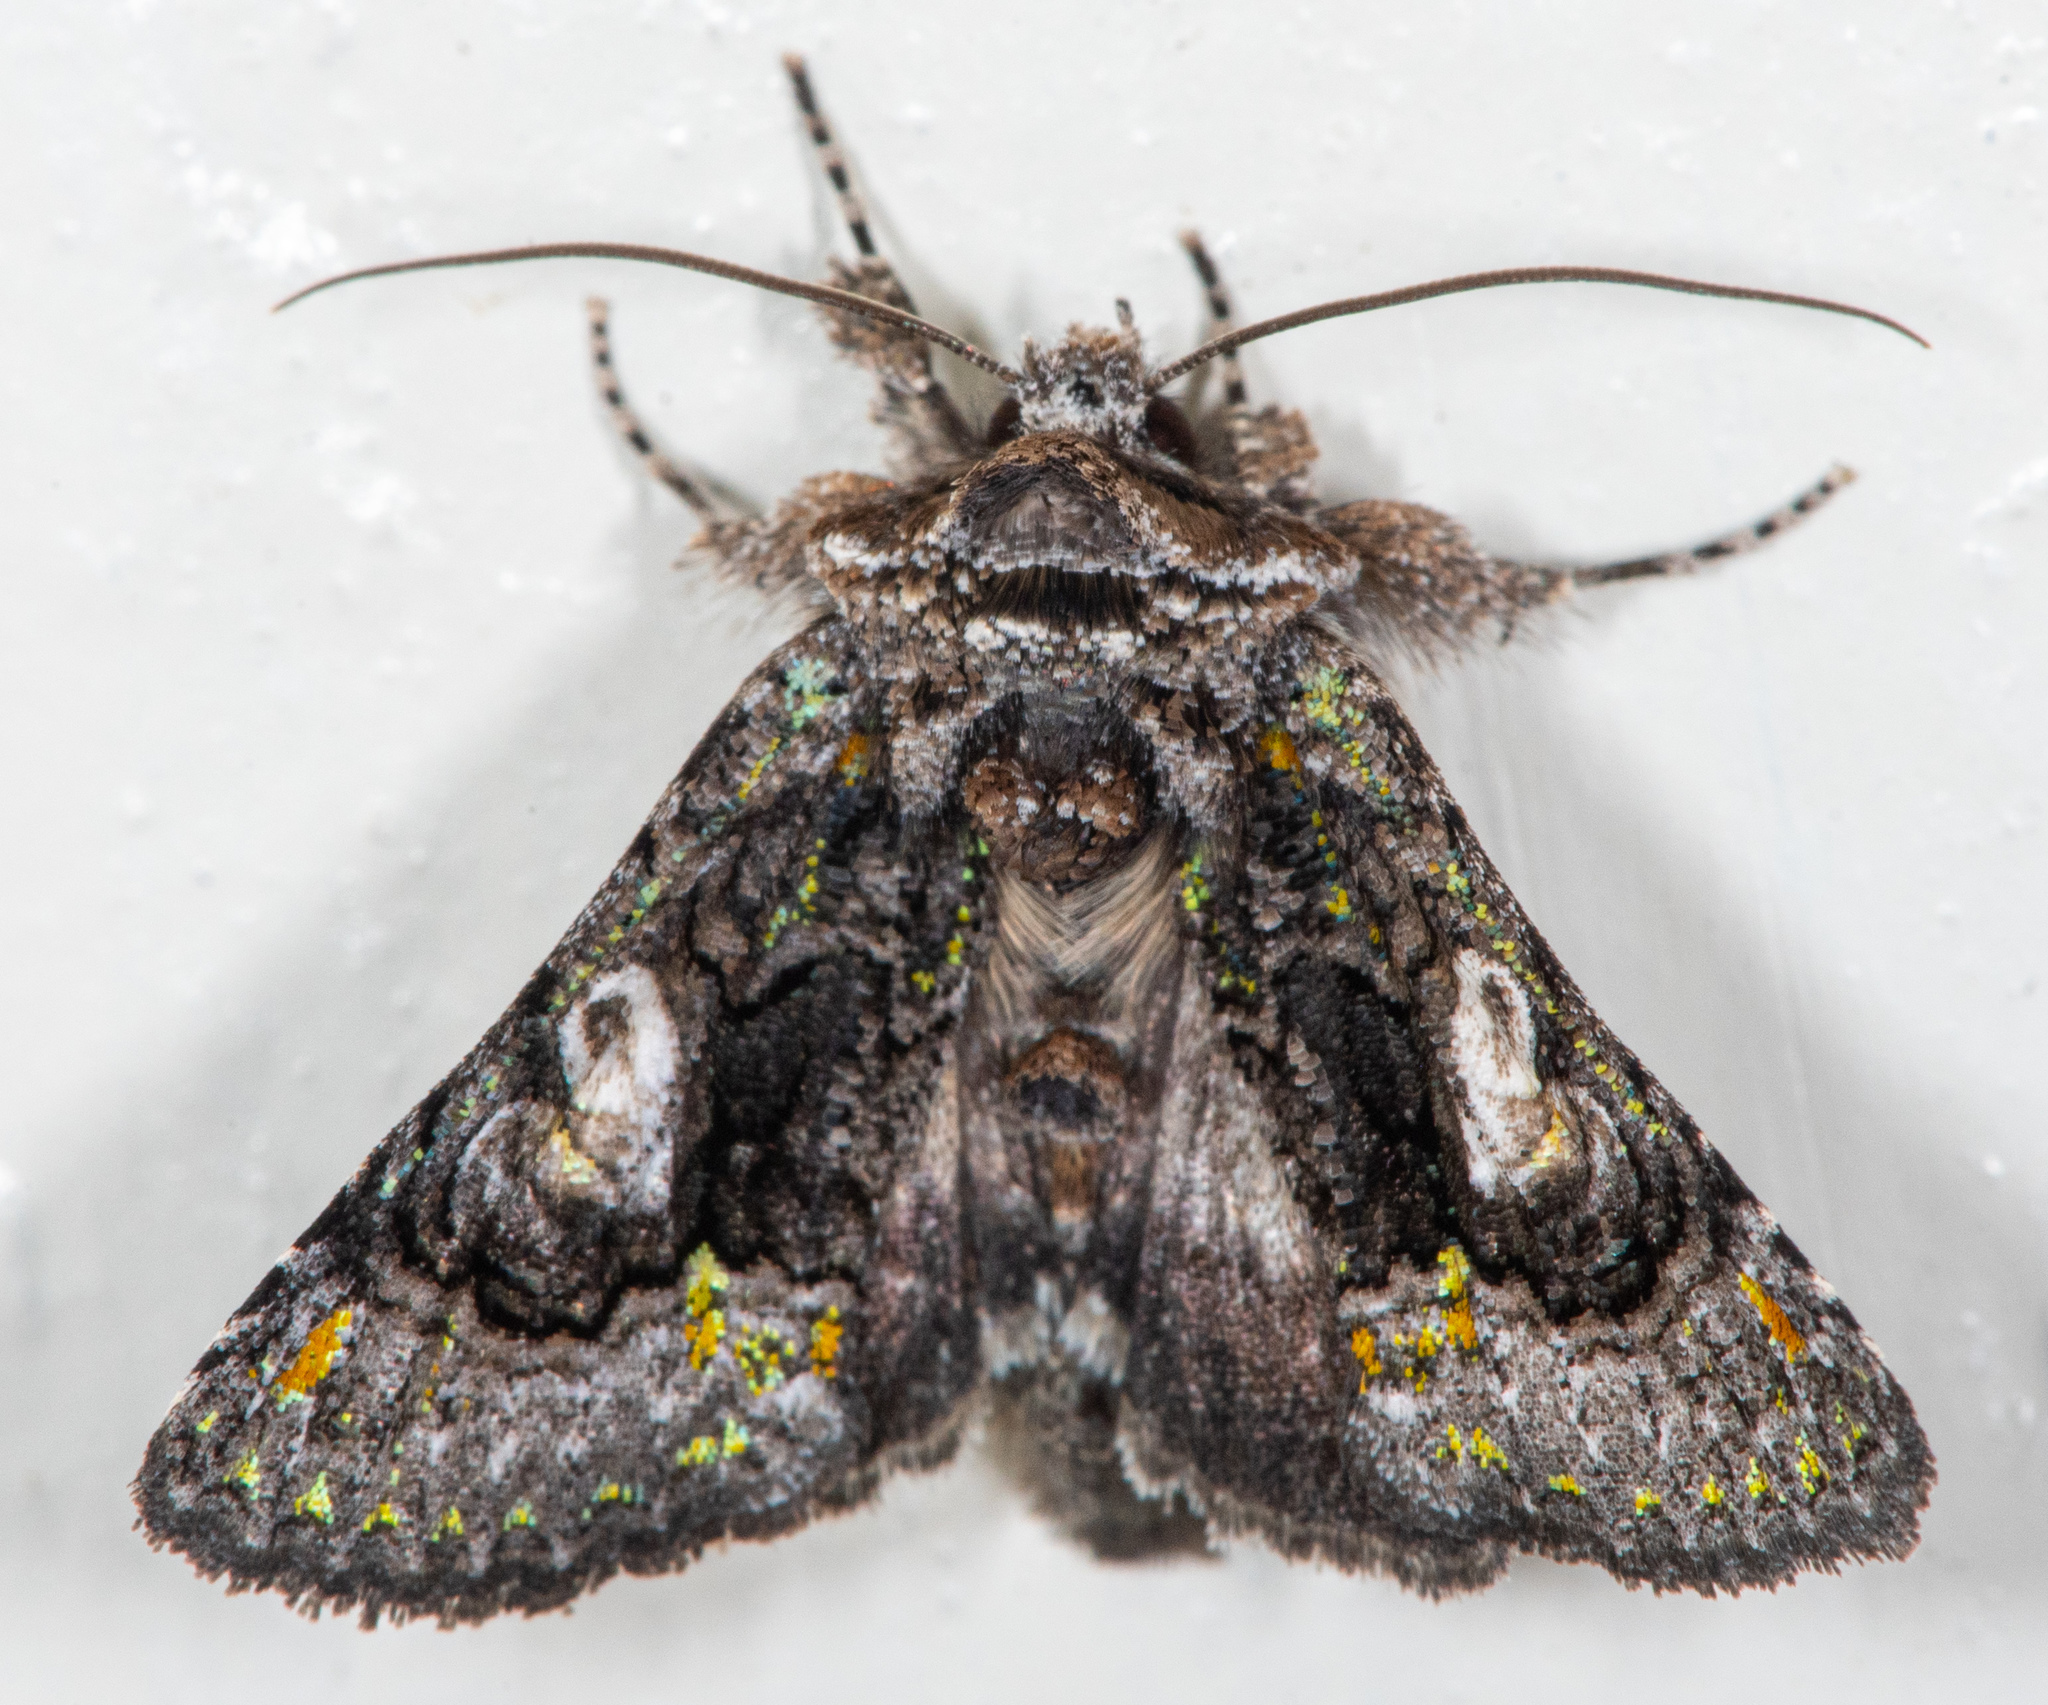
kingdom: Animalia
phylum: Arthropoda
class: Insecta
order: Lepidoptera
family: Noctuidae
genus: Behrensia
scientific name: Behrensia conchiformis
